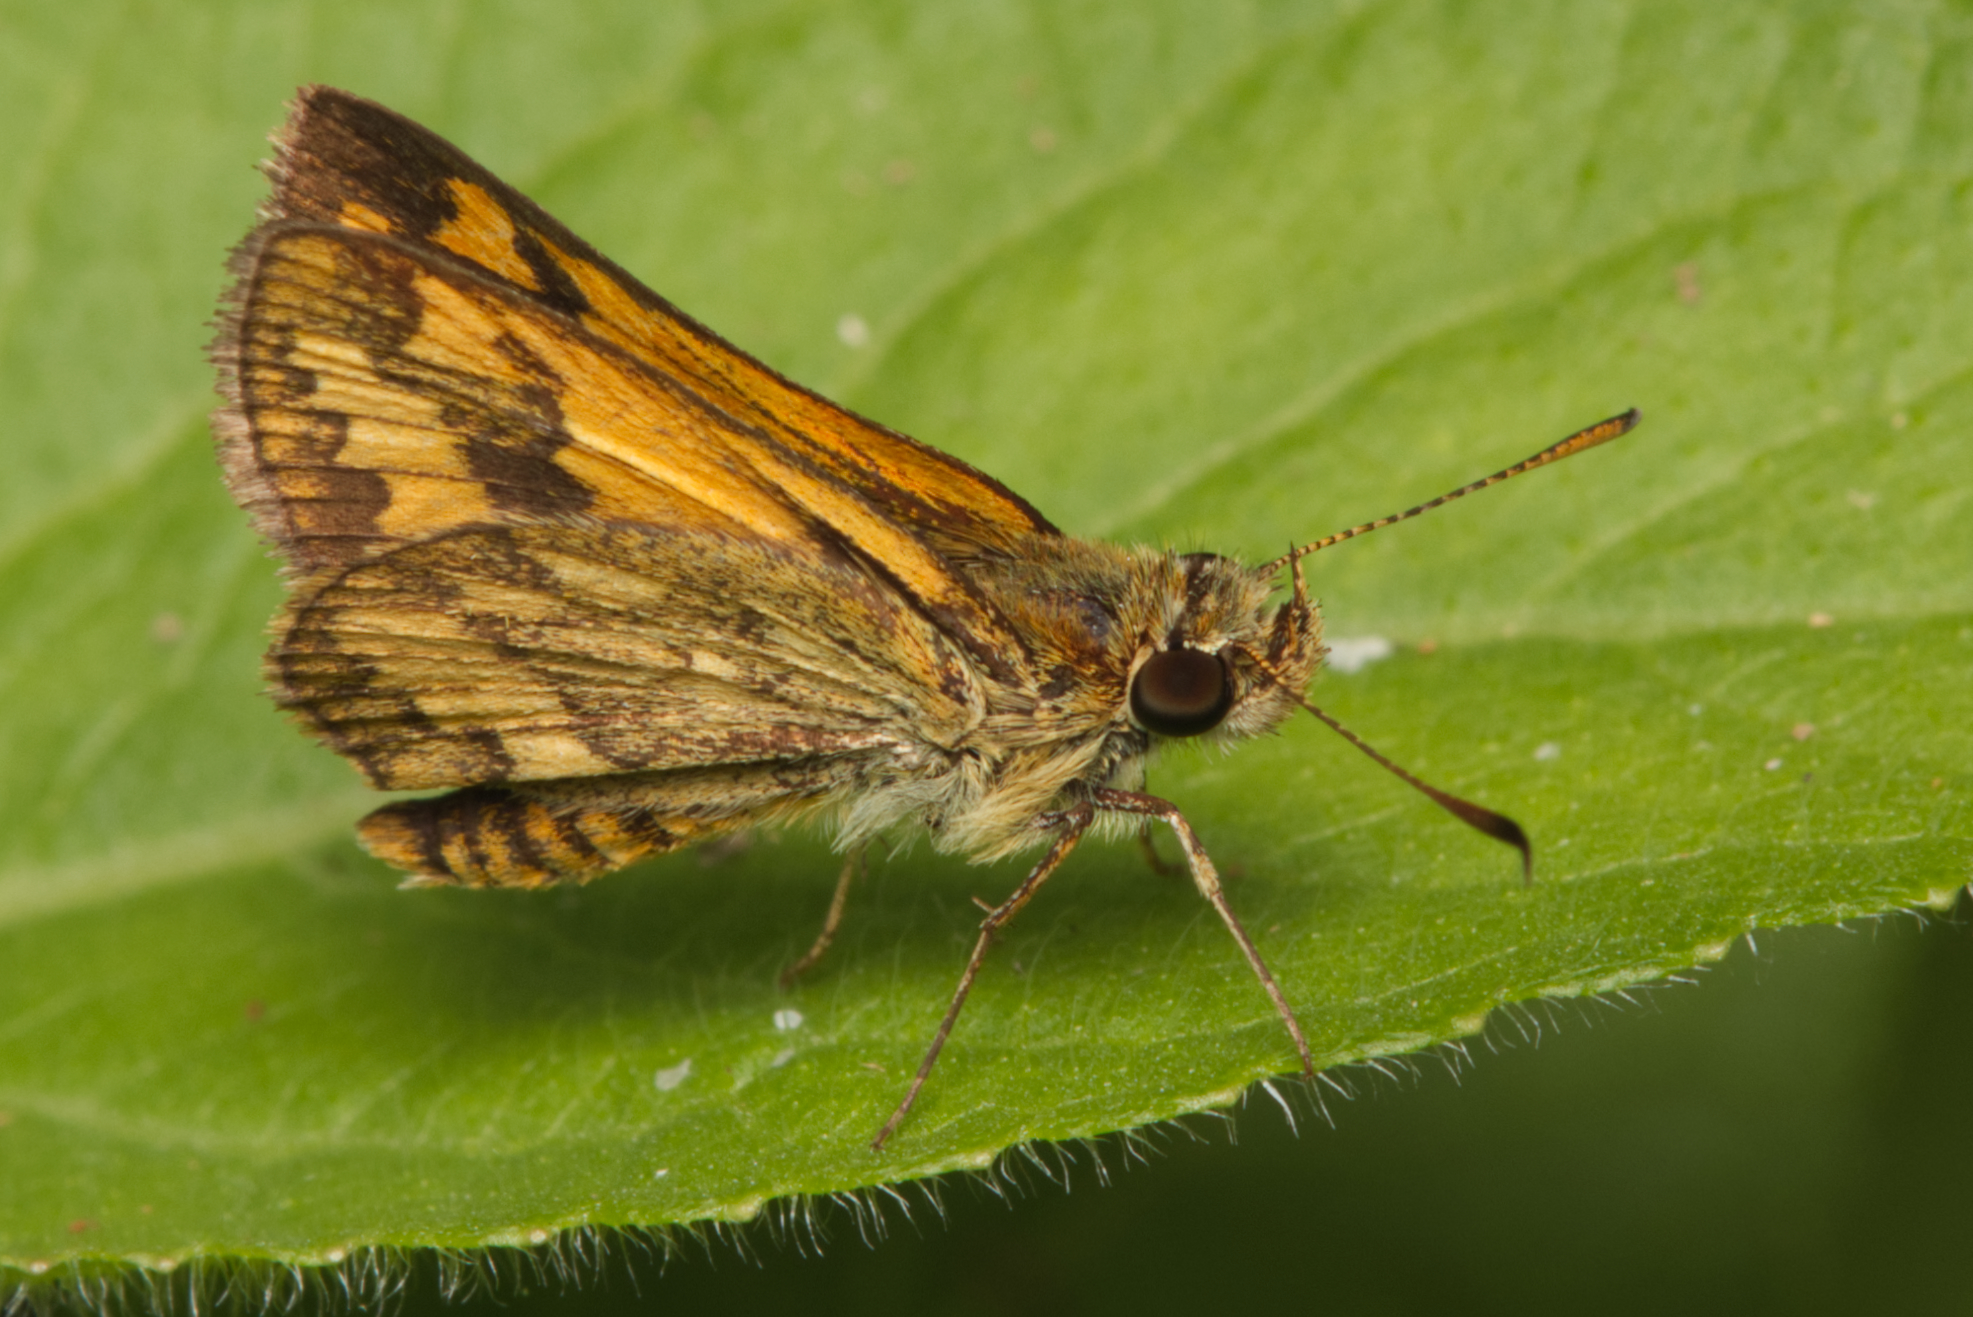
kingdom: Animalia
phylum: Arthropoda
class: Insecta
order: Lepidoptera
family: Hesperiidae
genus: Suniana
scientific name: Suniana sunias
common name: Wide-brand grass-dart
